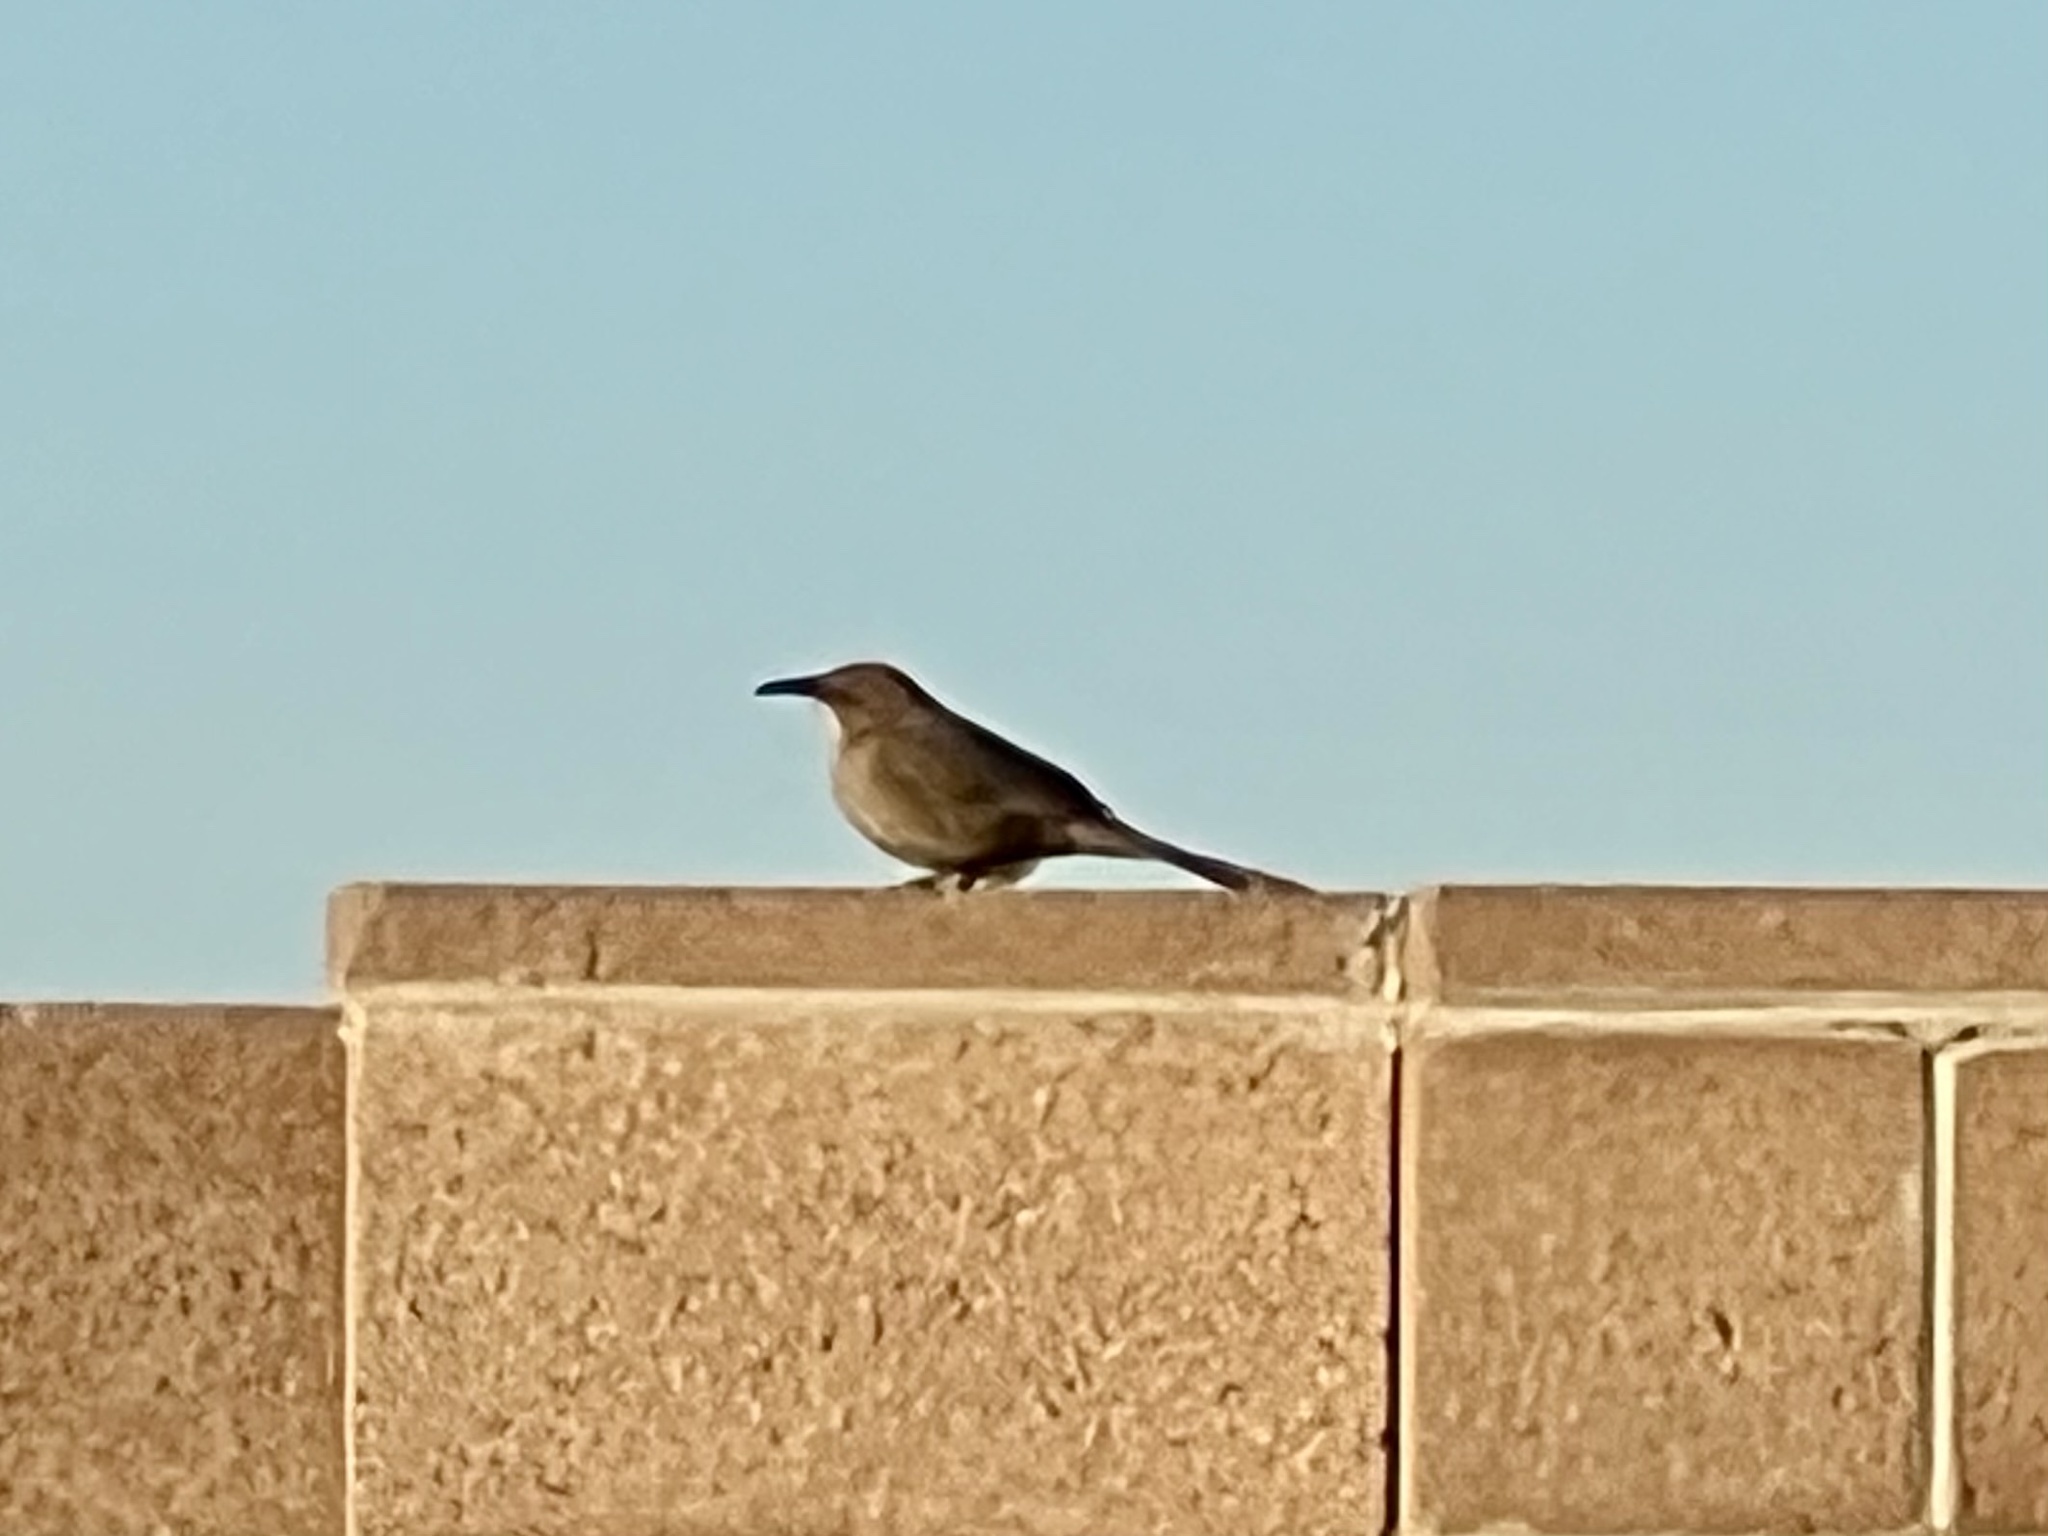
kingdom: Animalia
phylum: Chordata
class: Aves
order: Passeriformes
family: Mimidae
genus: Toxostoma
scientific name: Toxostoma curvirostre
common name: Curve-billed thrasher
